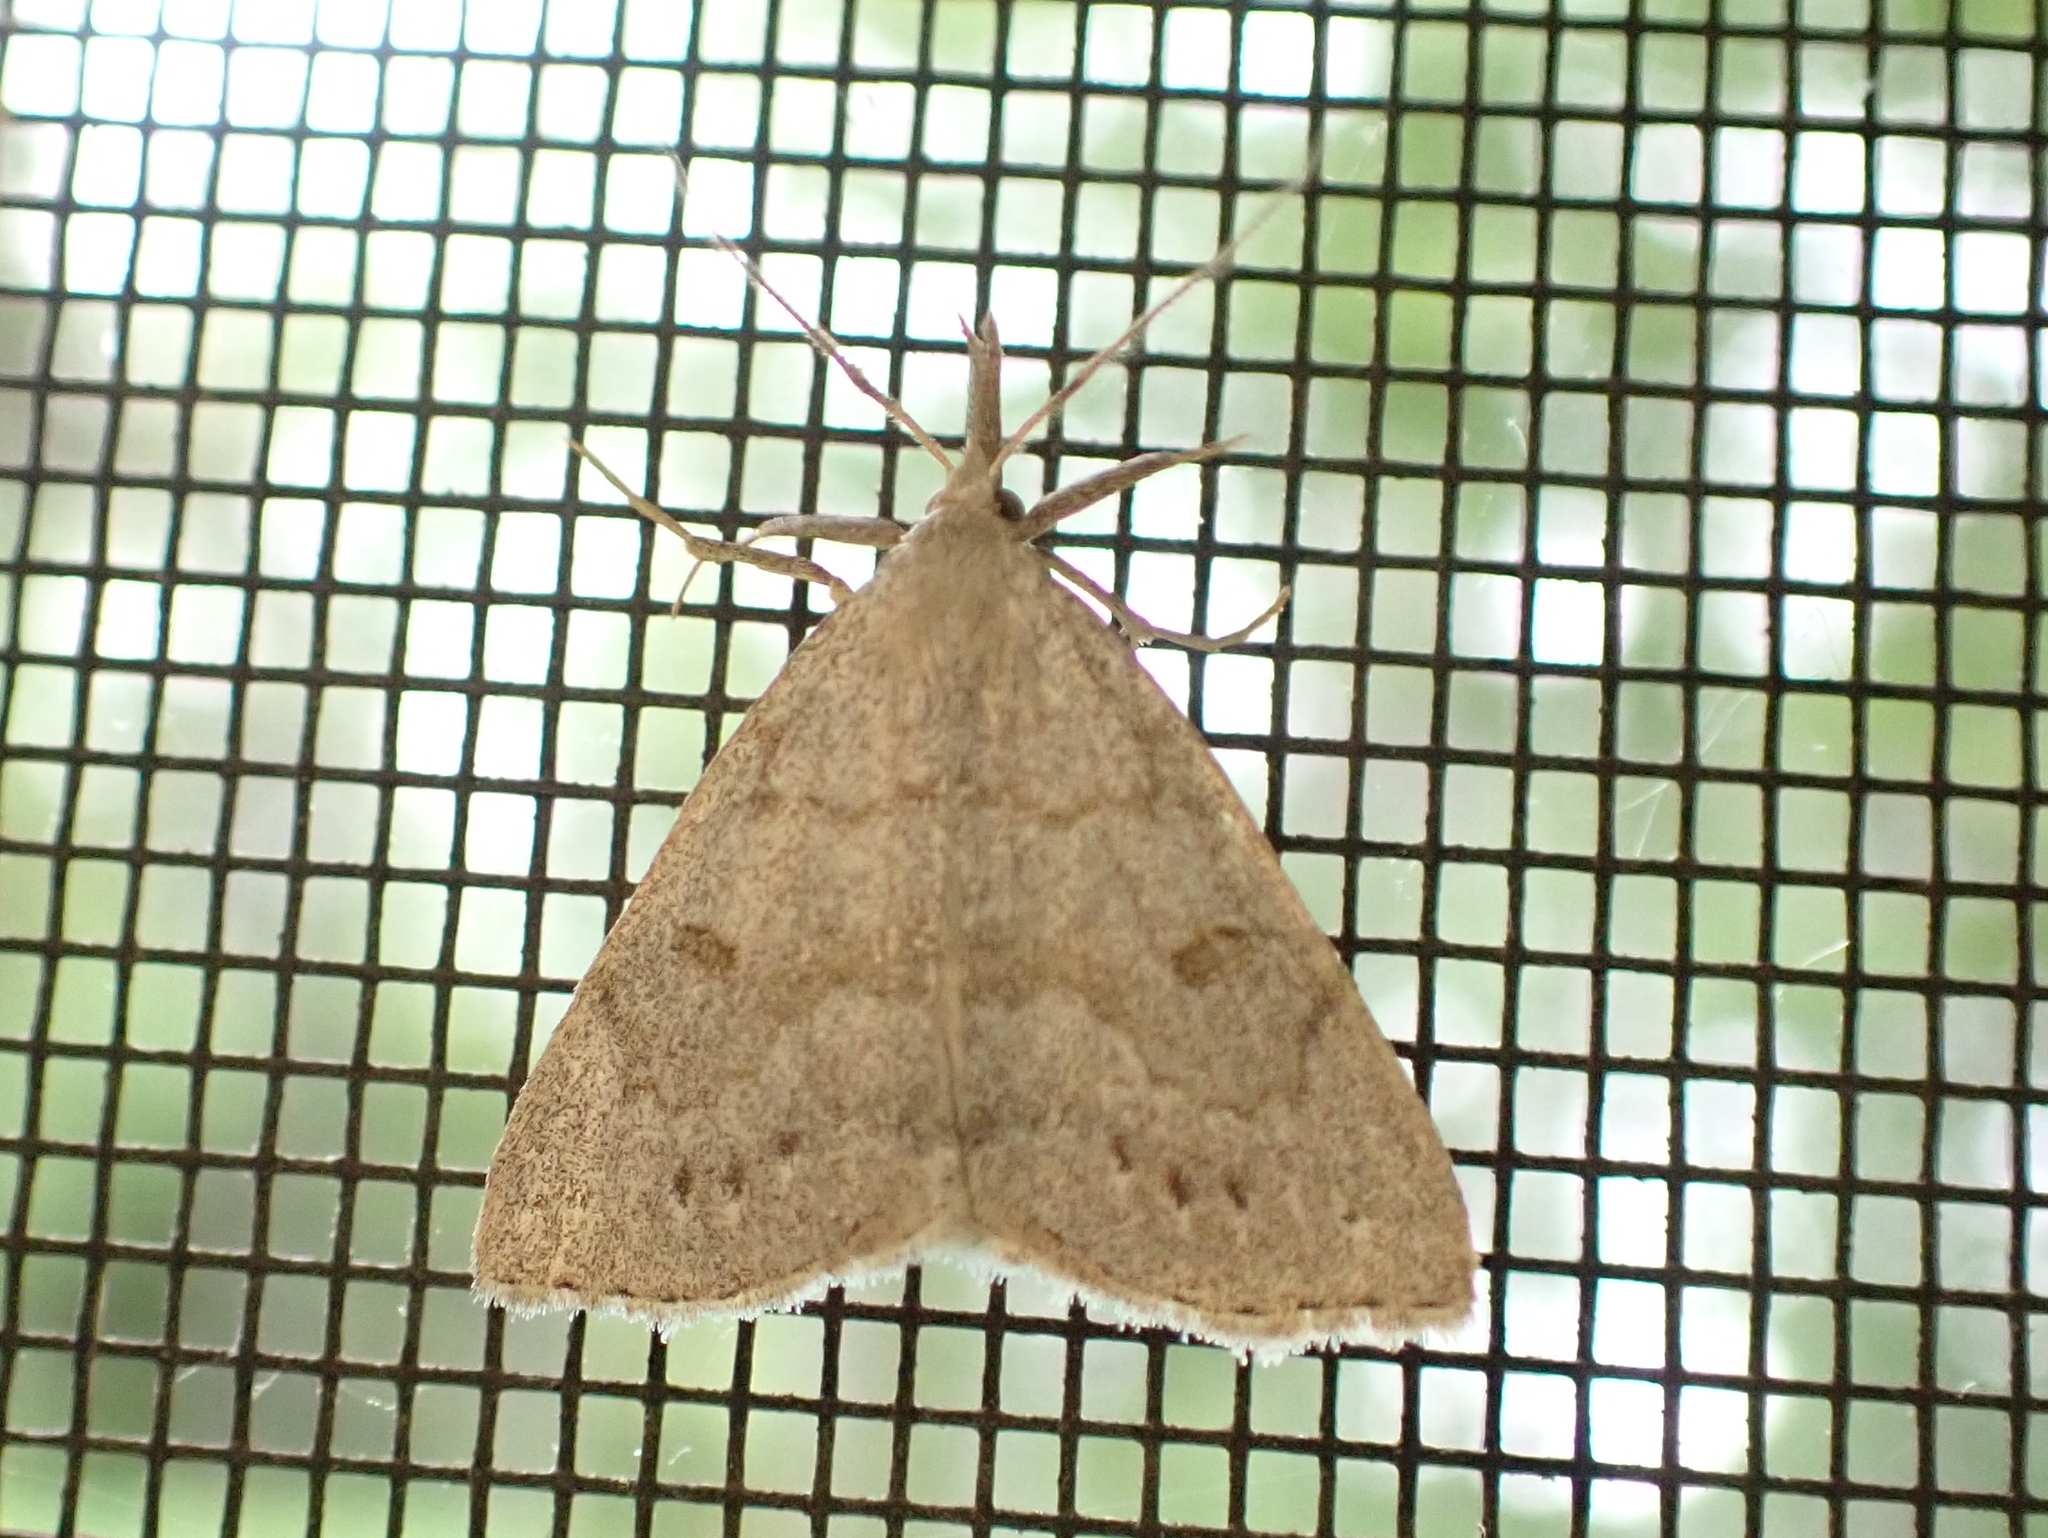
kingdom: Animalia
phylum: Arthropoda
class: Insecta
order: Lepidoptera
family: Erebidae
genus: Macrochilo
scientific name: Macrochilo morbidalis
